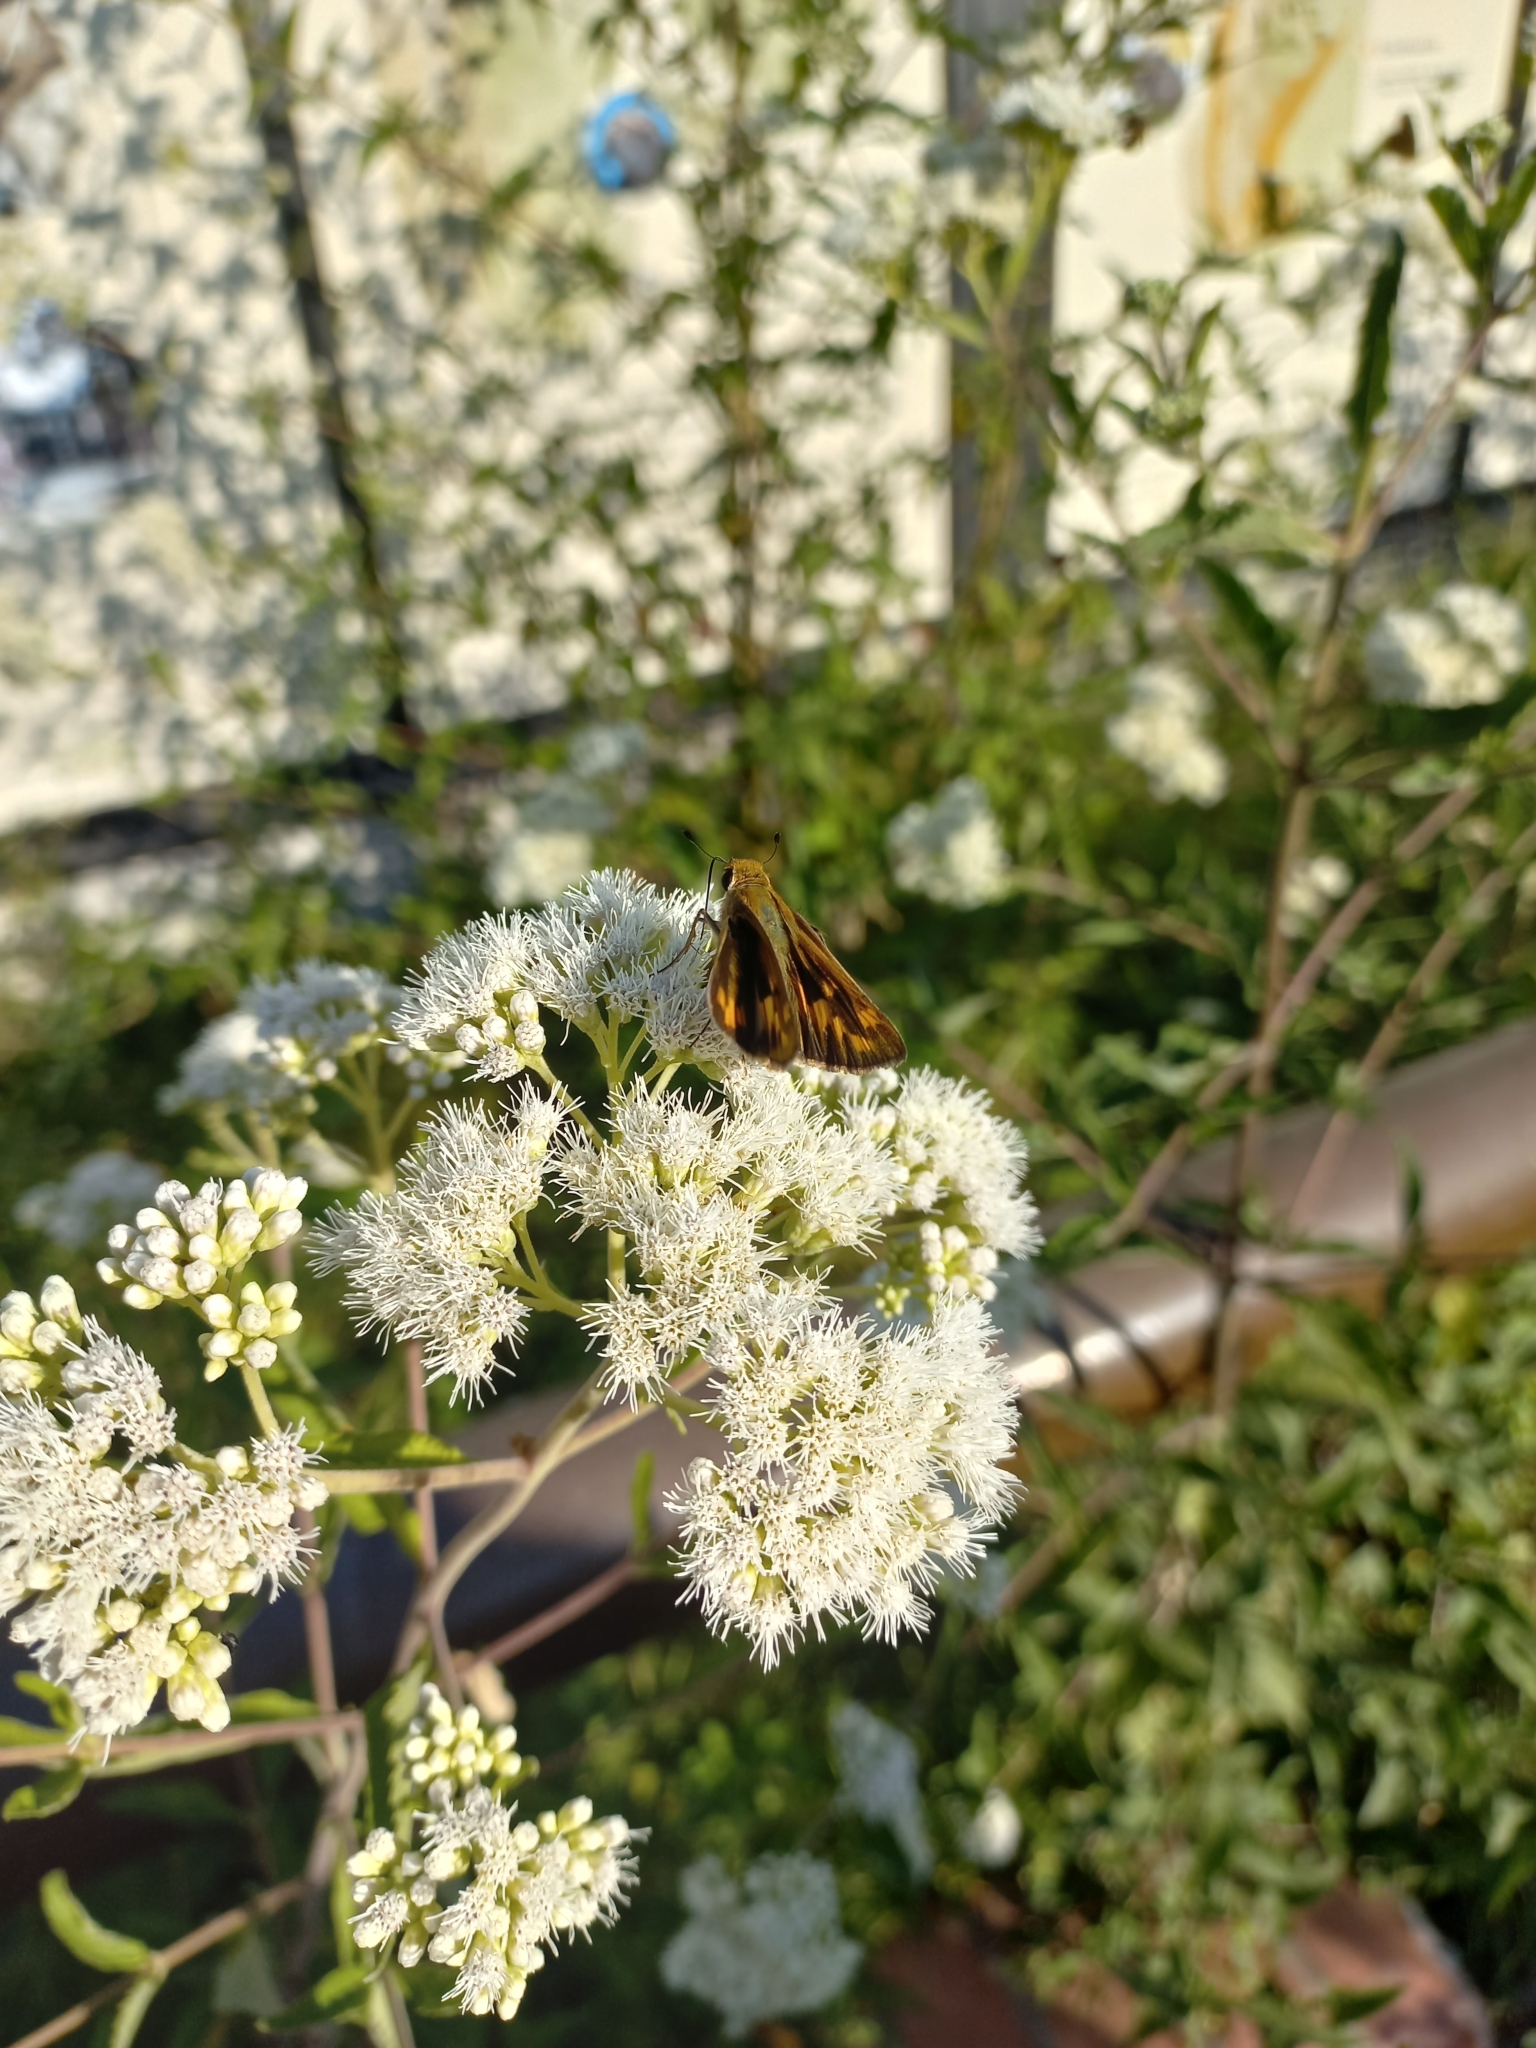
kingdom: Animalia
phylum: Arthropoda
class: Insecta
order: Lepidoptera
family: Hesperiidae
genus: Hylephila
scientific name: Hylephila phyleus
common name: Fiery skipper
